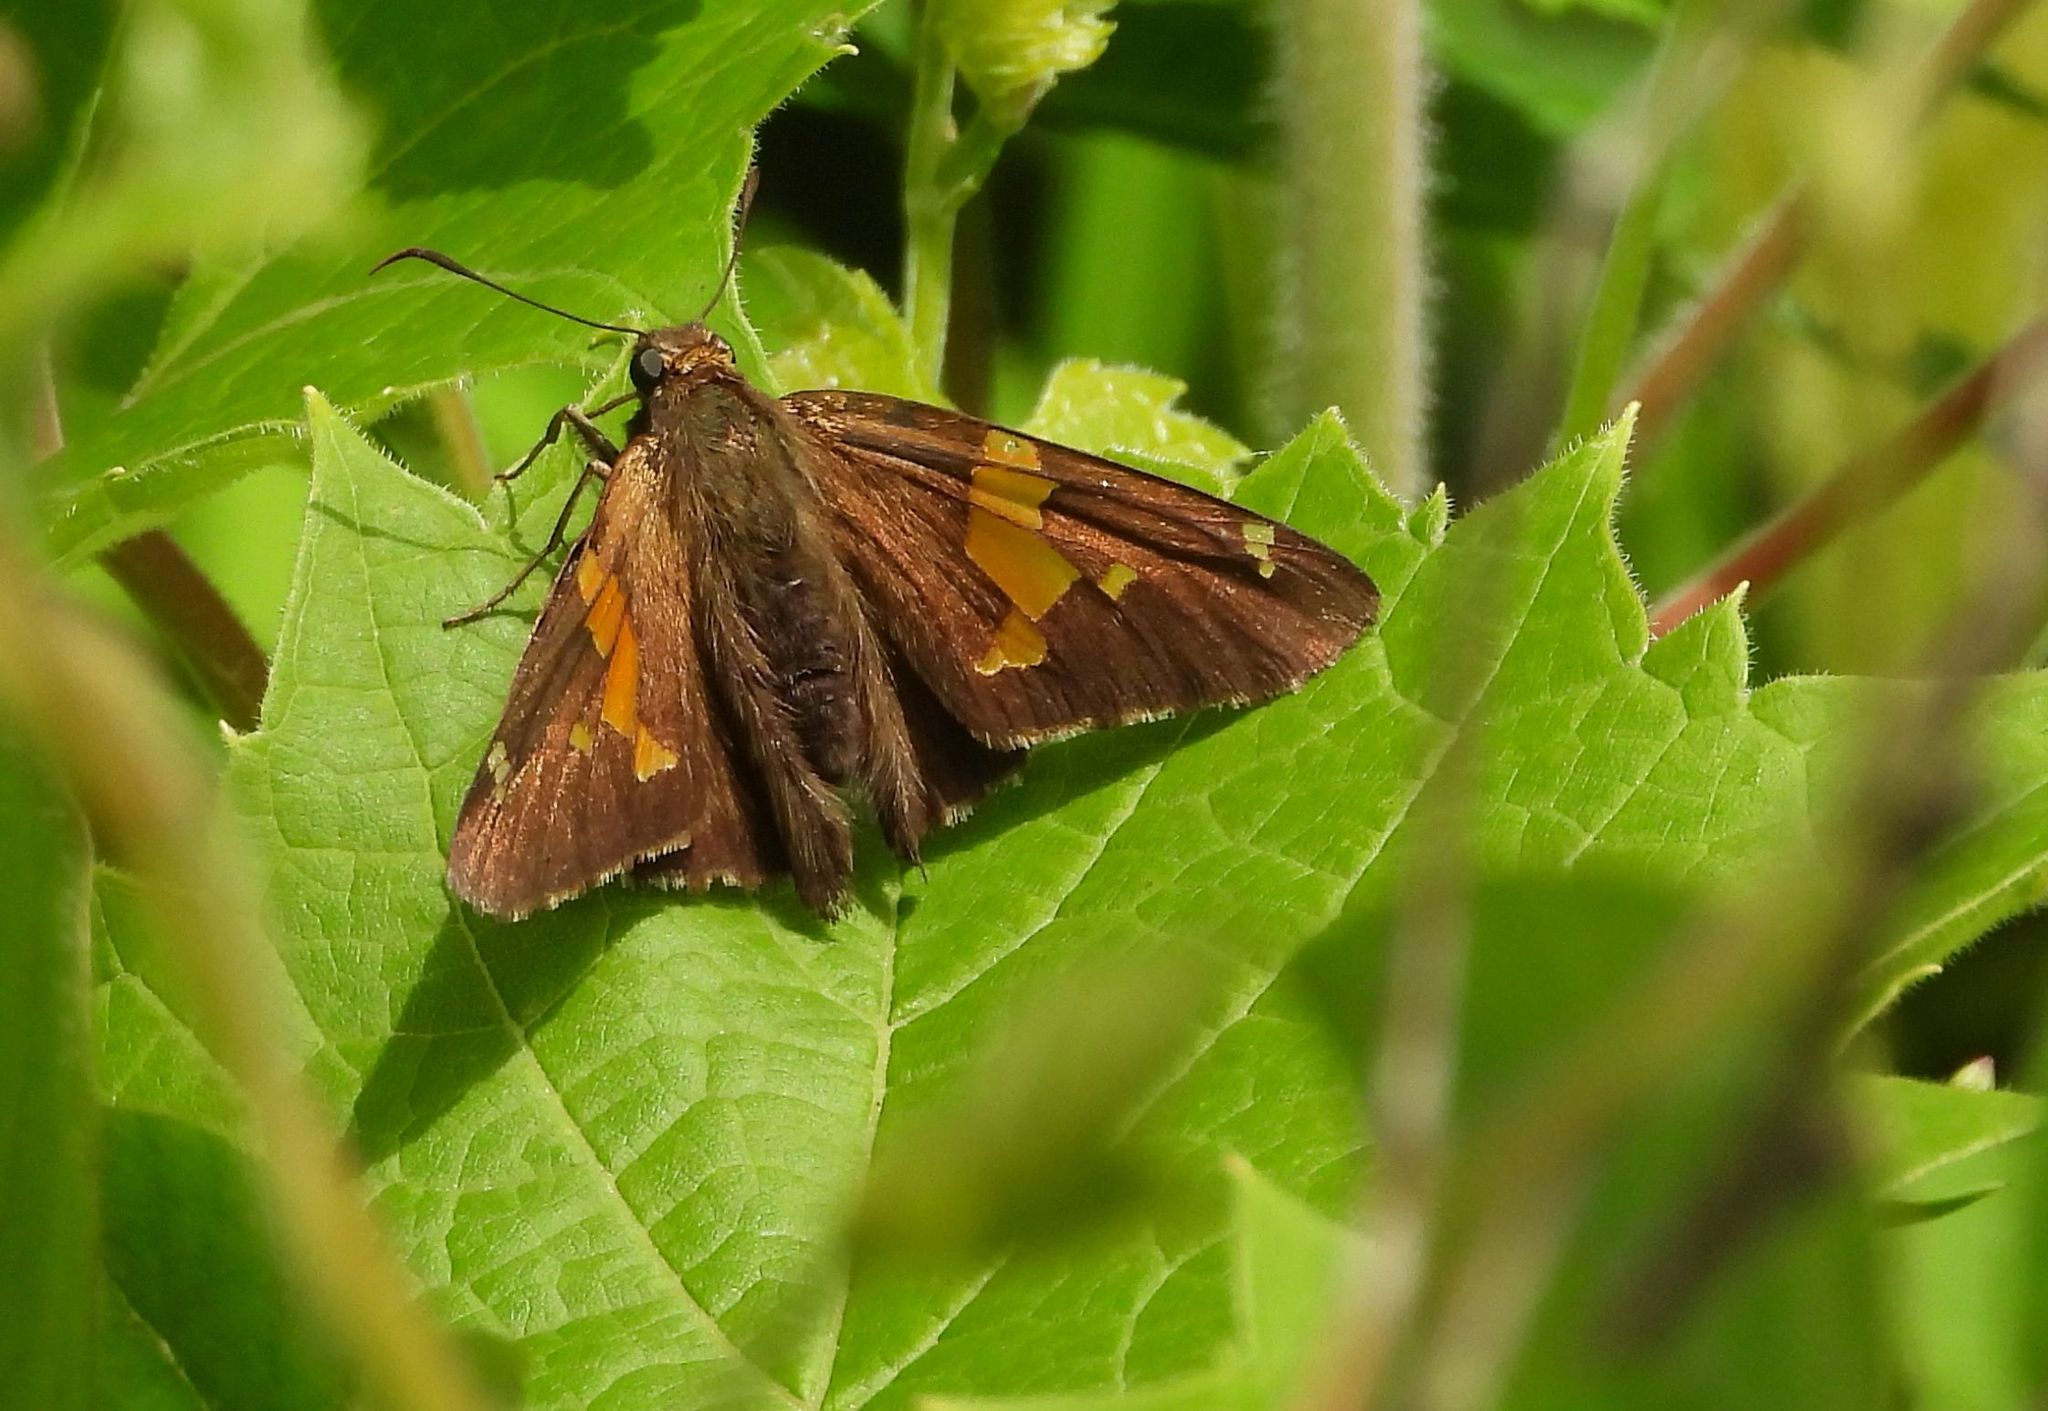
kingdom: Animalia
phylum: Arthropoda
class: Insecta
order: Lepidoptera
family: Hesperiidae
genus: Epargyreus
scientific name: Epargyreus clarus
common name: Silver-spotted skipper
